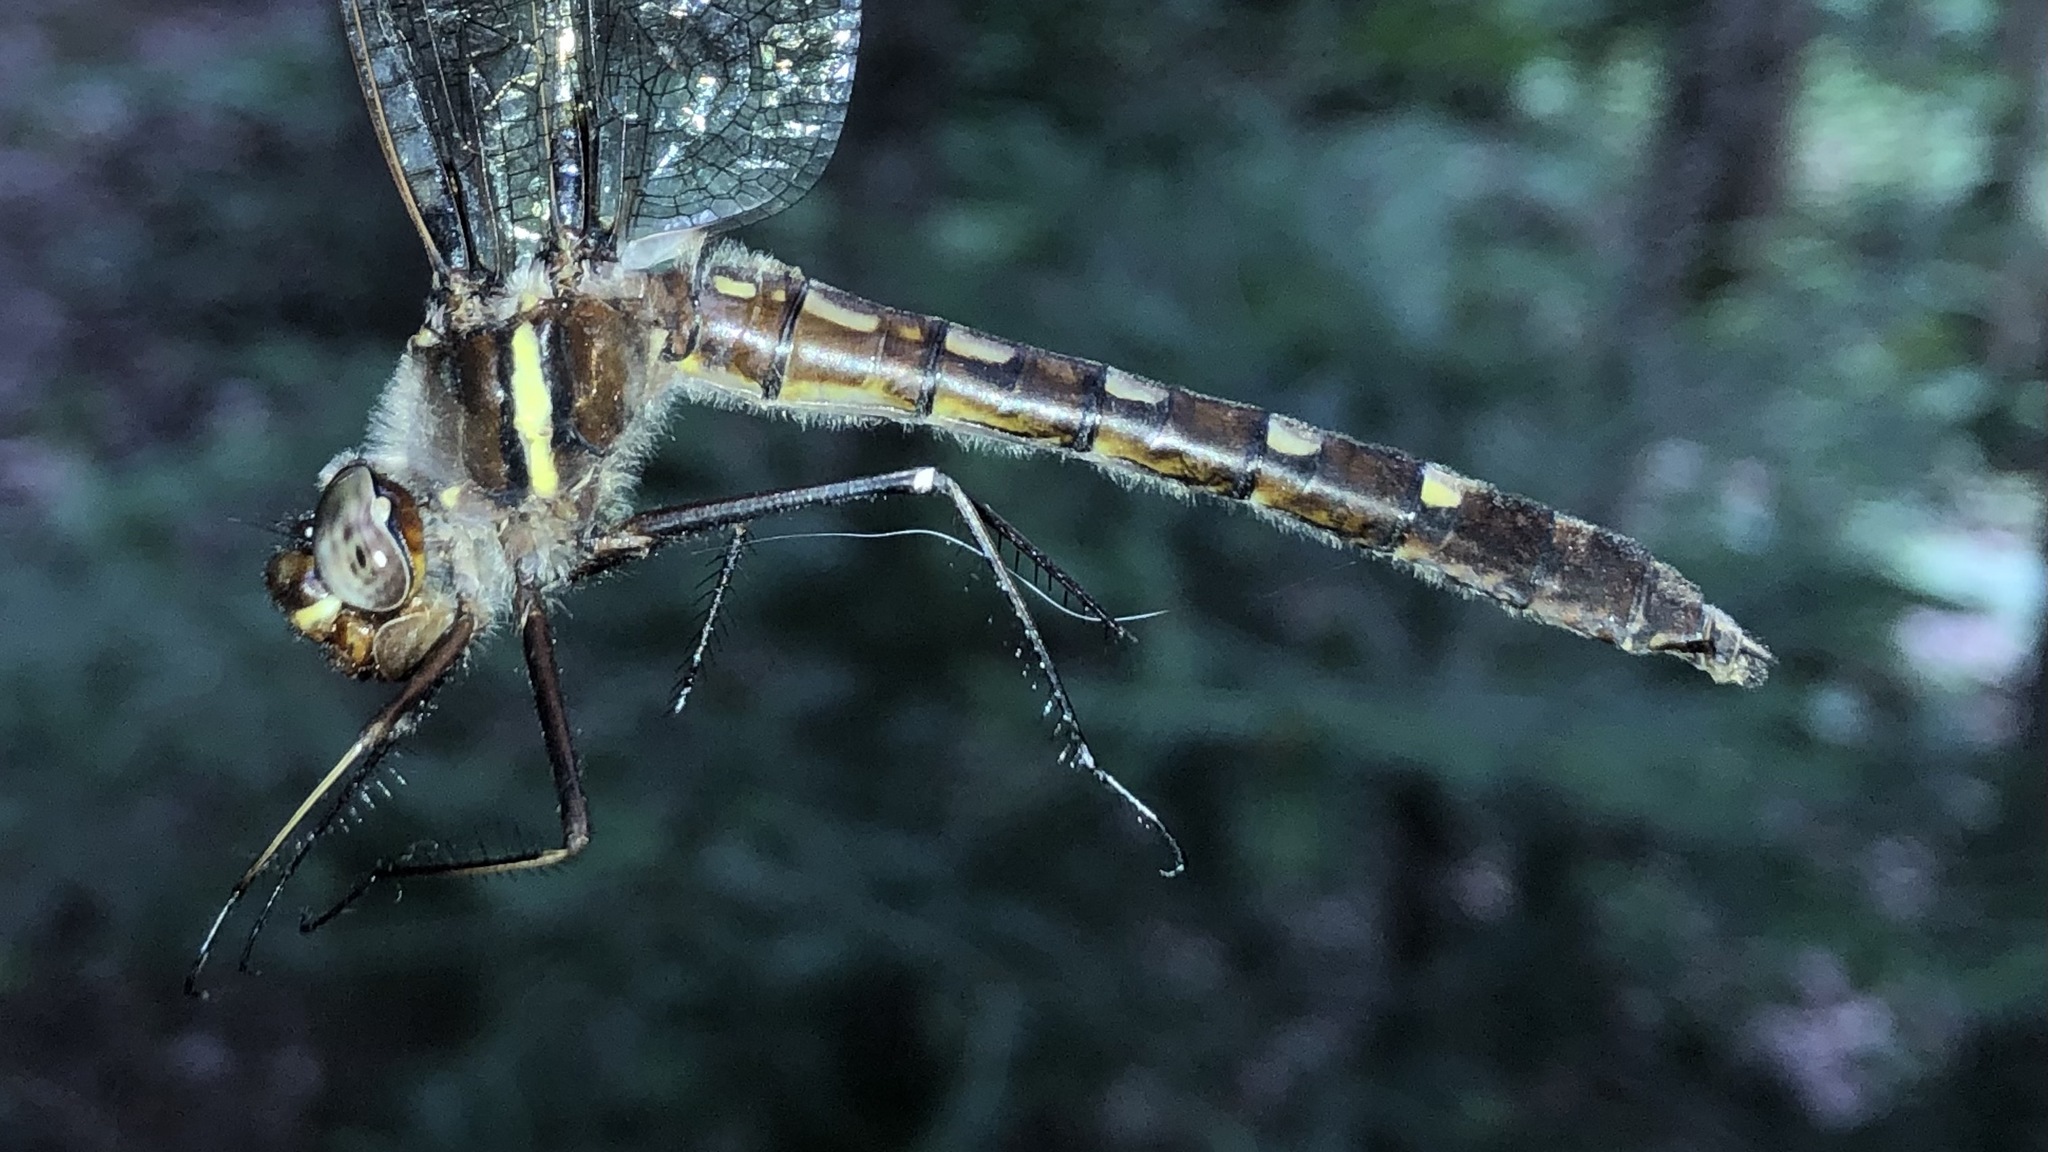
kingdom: Animalia
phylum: Arthropoda
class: Insecta
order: Odonata
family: Macromiidae
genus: Didymops
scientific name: Didymops transversa
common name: Stream cruiser
